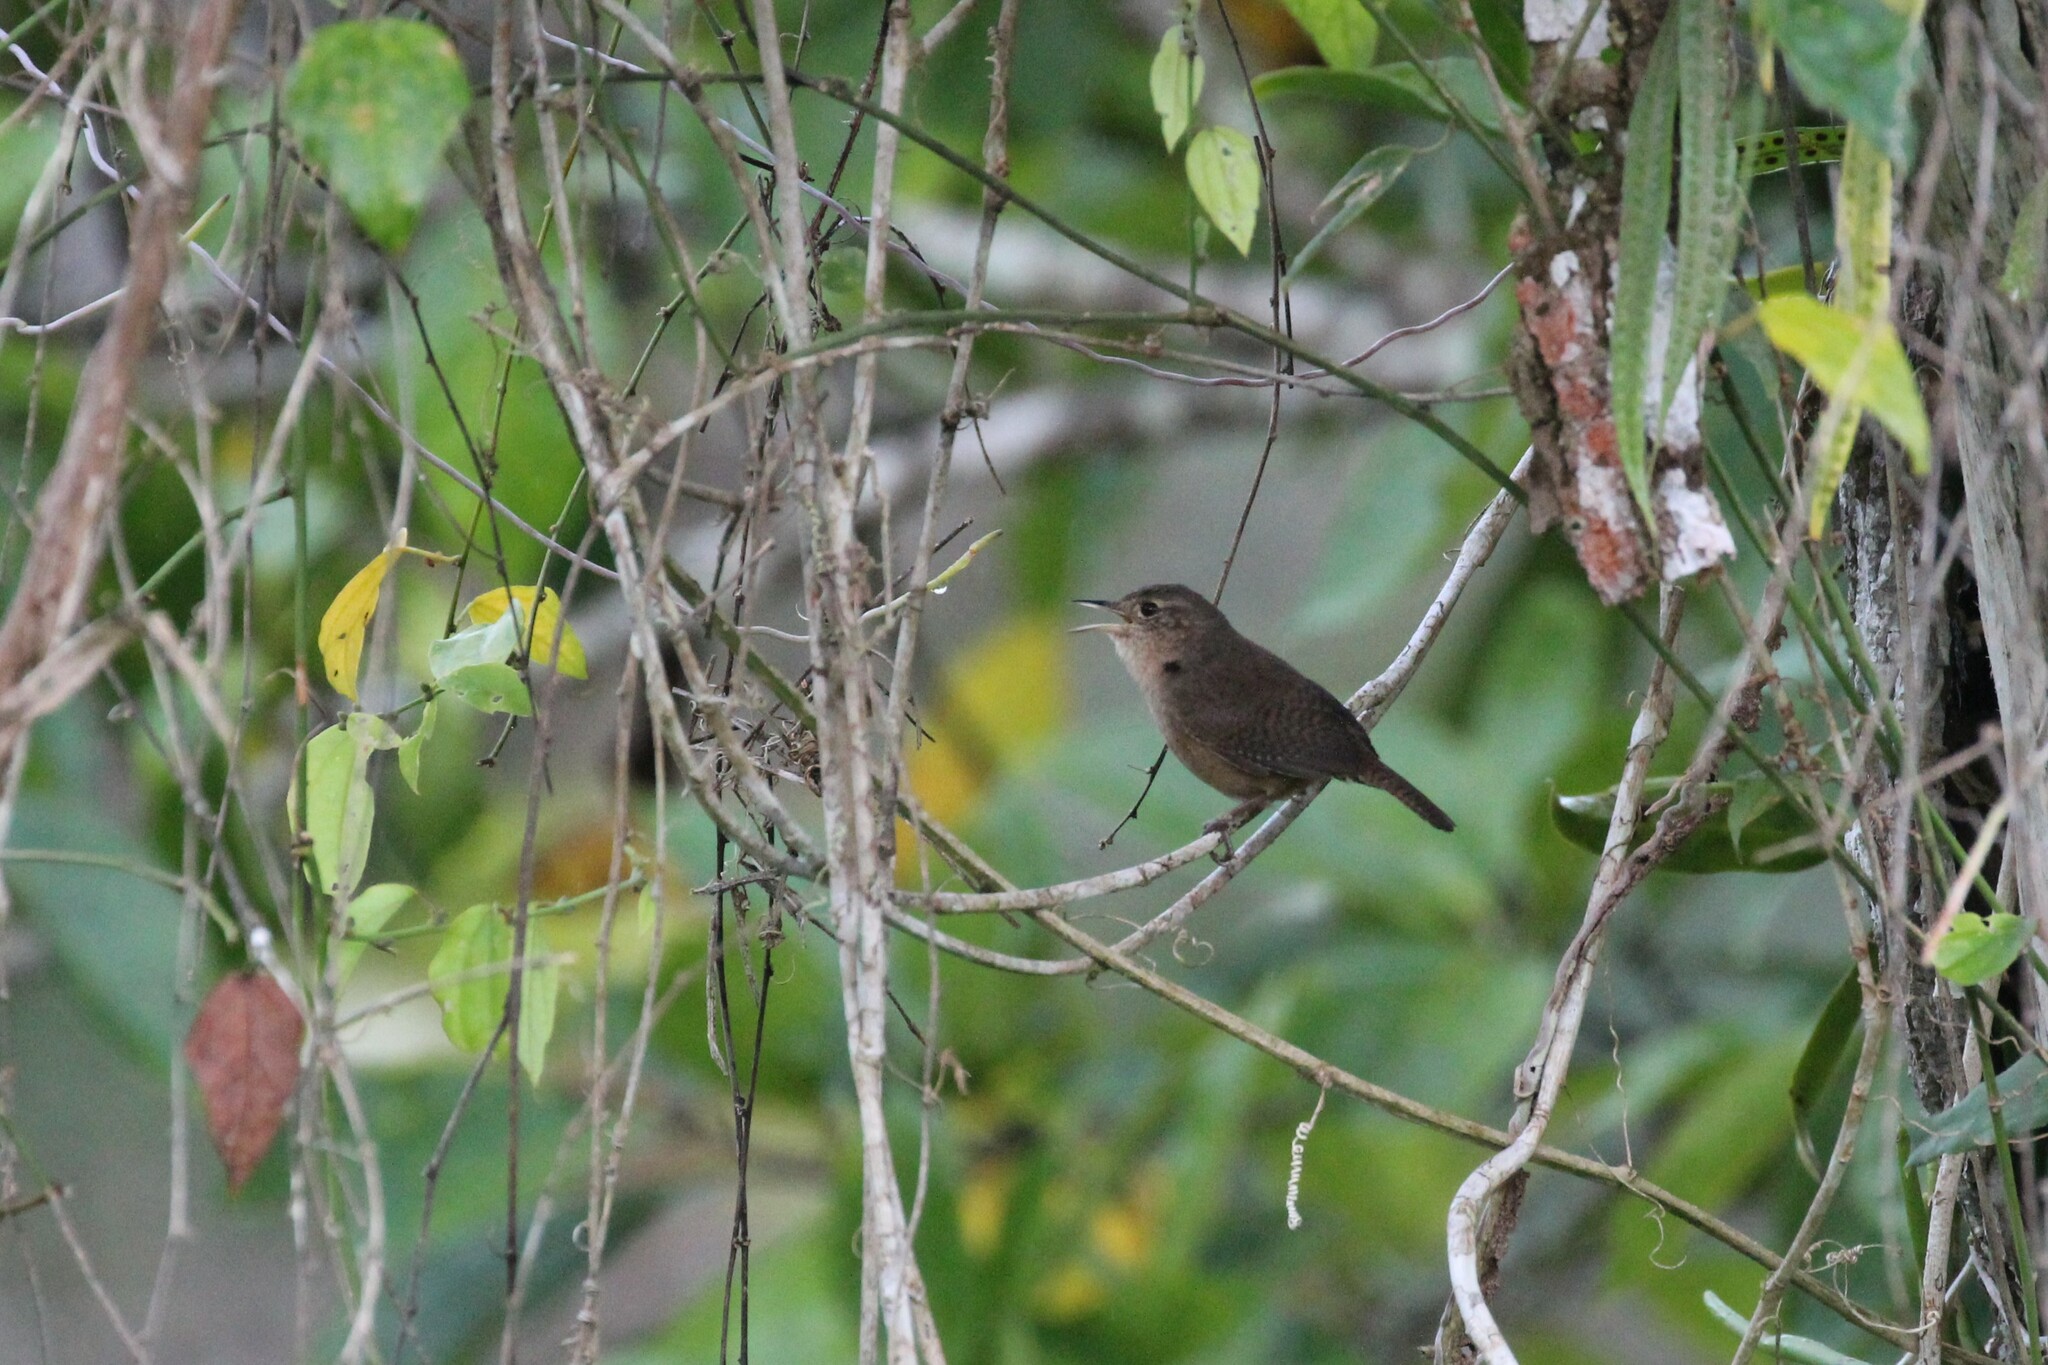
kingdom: Animalia
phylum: Chordata
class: Aves
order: Passeriformes
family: Troglodytidae
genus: Troglodytes
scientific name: Troglodytes aedon
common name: House wren
